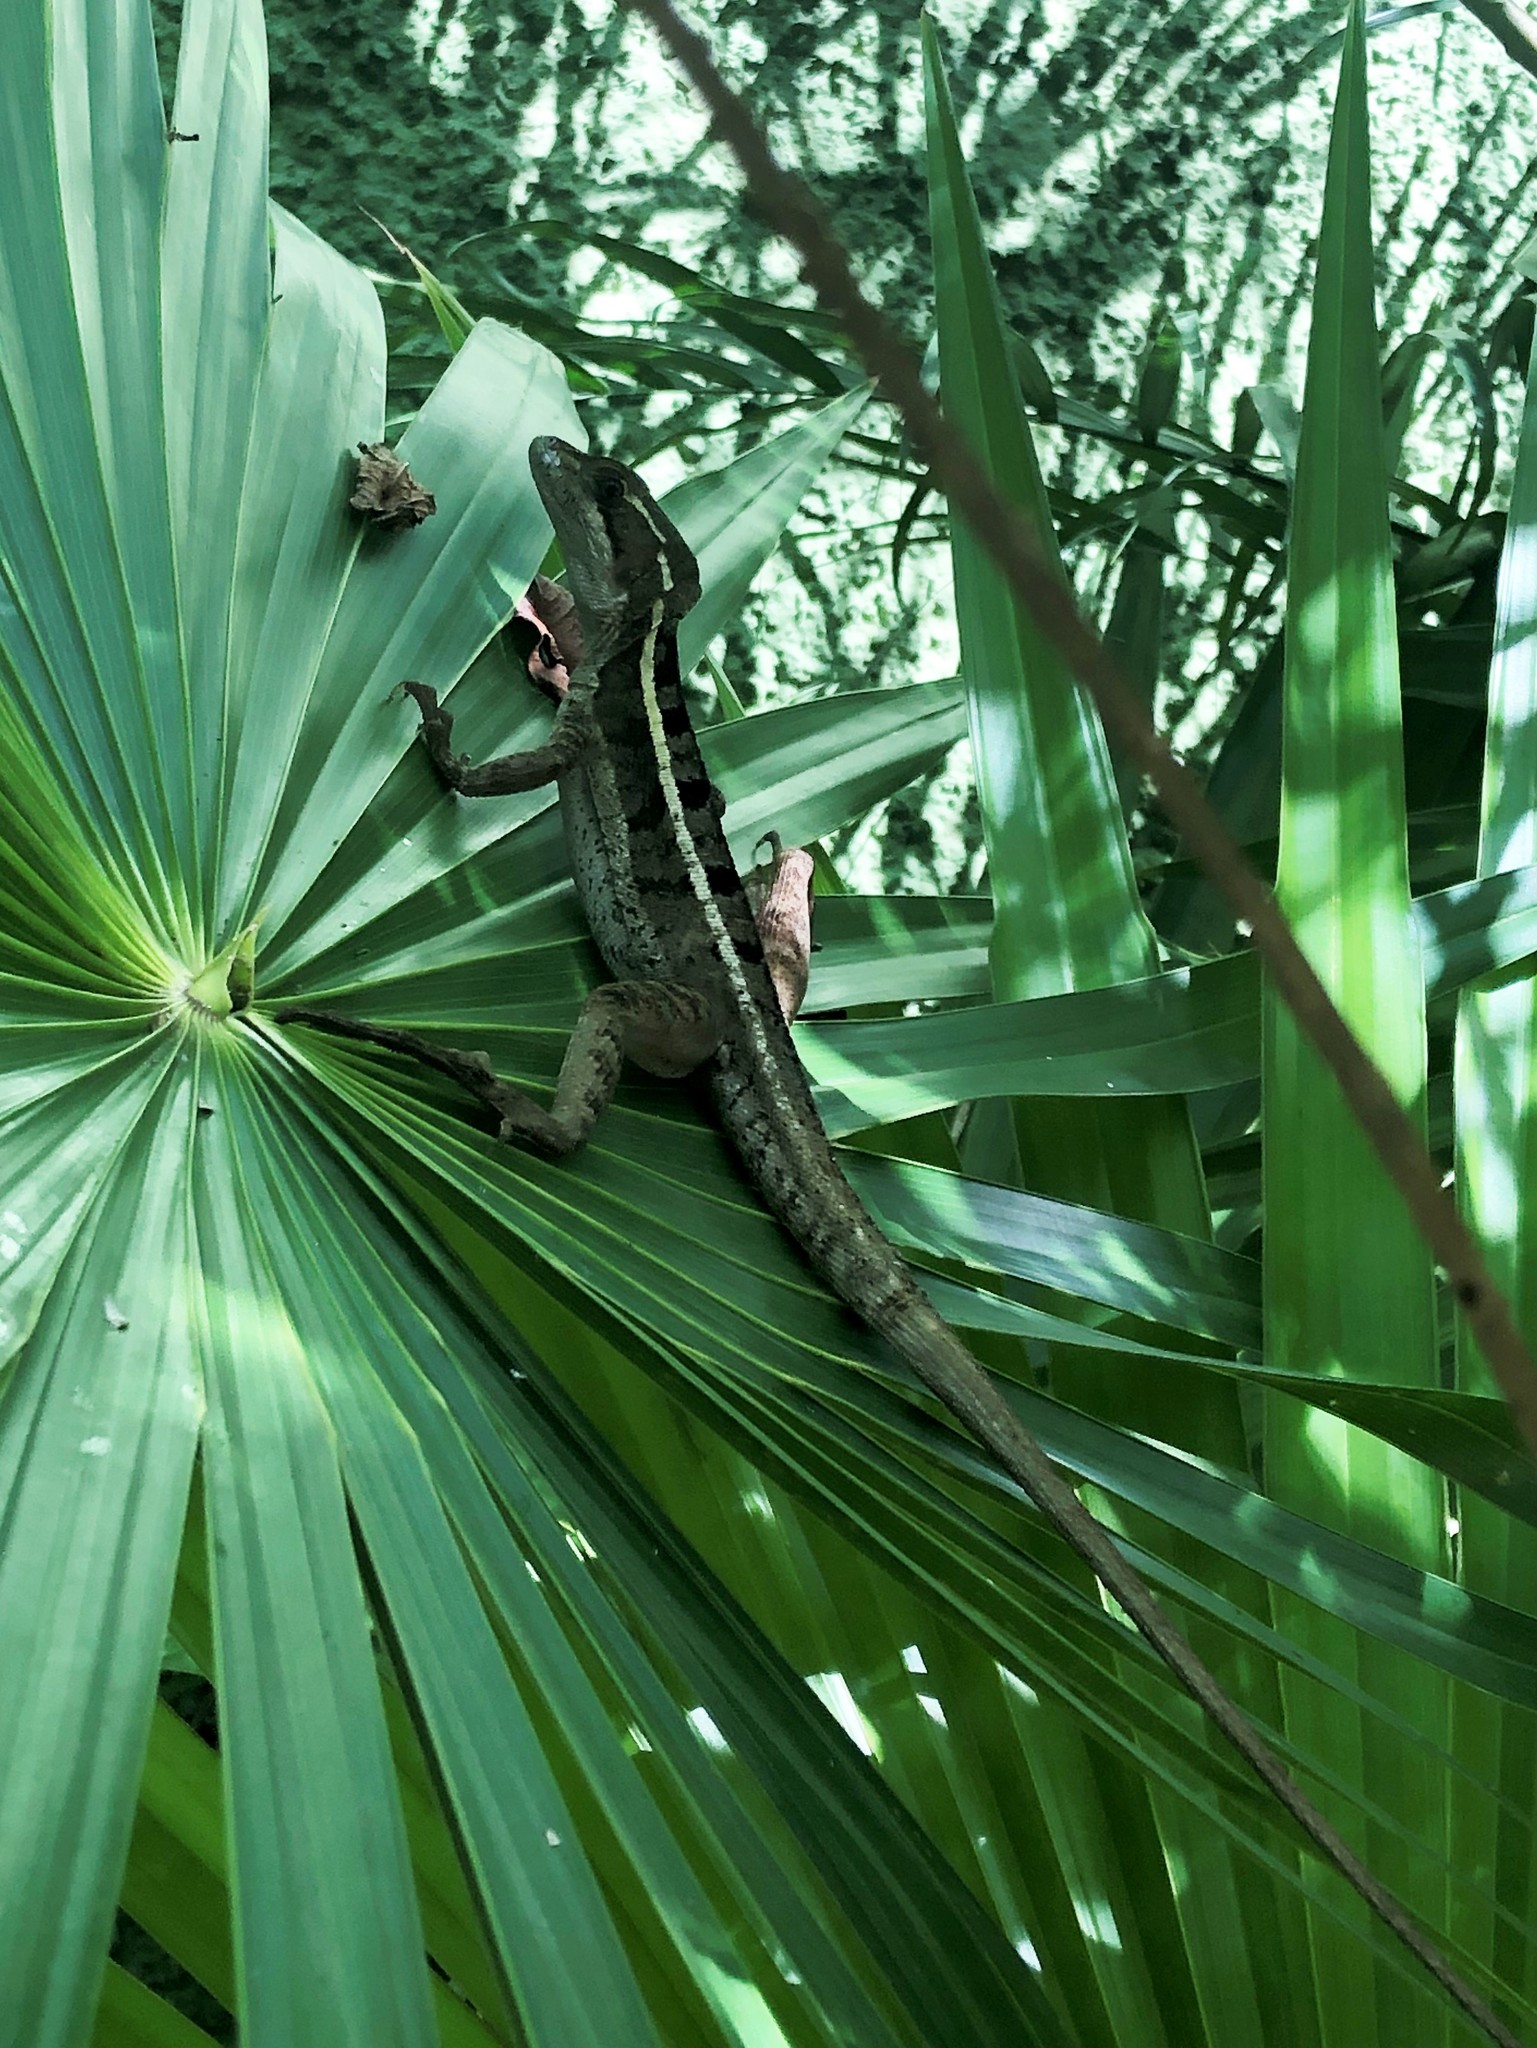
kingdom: Animalia
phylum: Chordata
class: Squamata
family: Corytophanidae
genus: Basiliscus
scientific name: Basiliscus vittatus
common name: Brown basilisk
